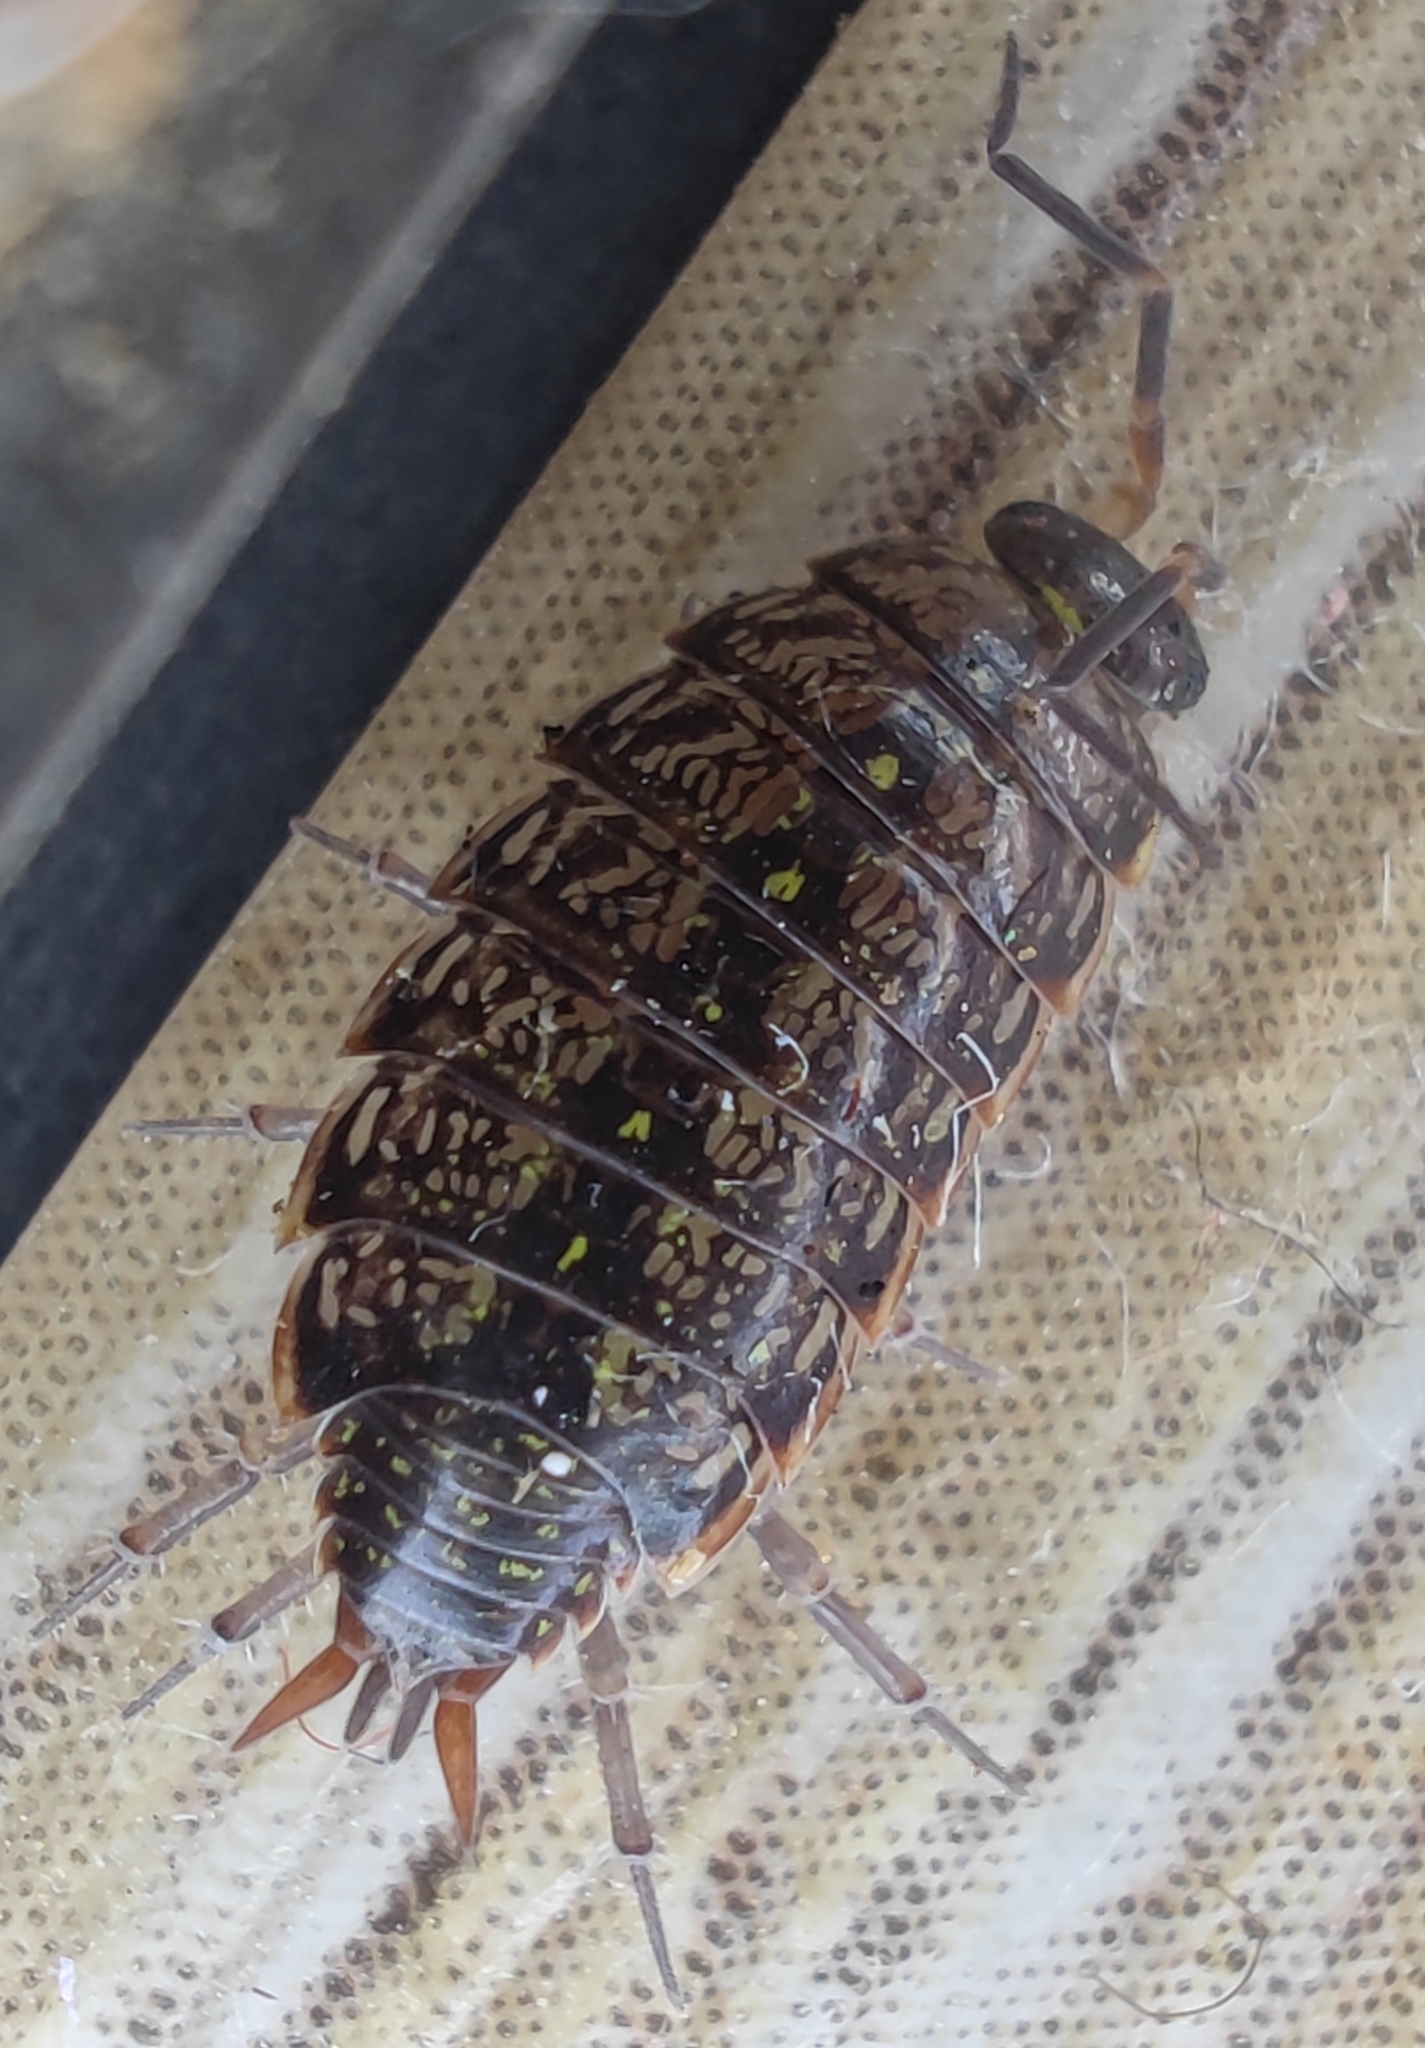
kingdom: Animalia
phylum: Arthropoda
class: Malacostraca
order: Isopoda
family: Philosciidae
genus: Philoscia
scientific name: Philoscia muscorum
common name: Common striped woodlouse
